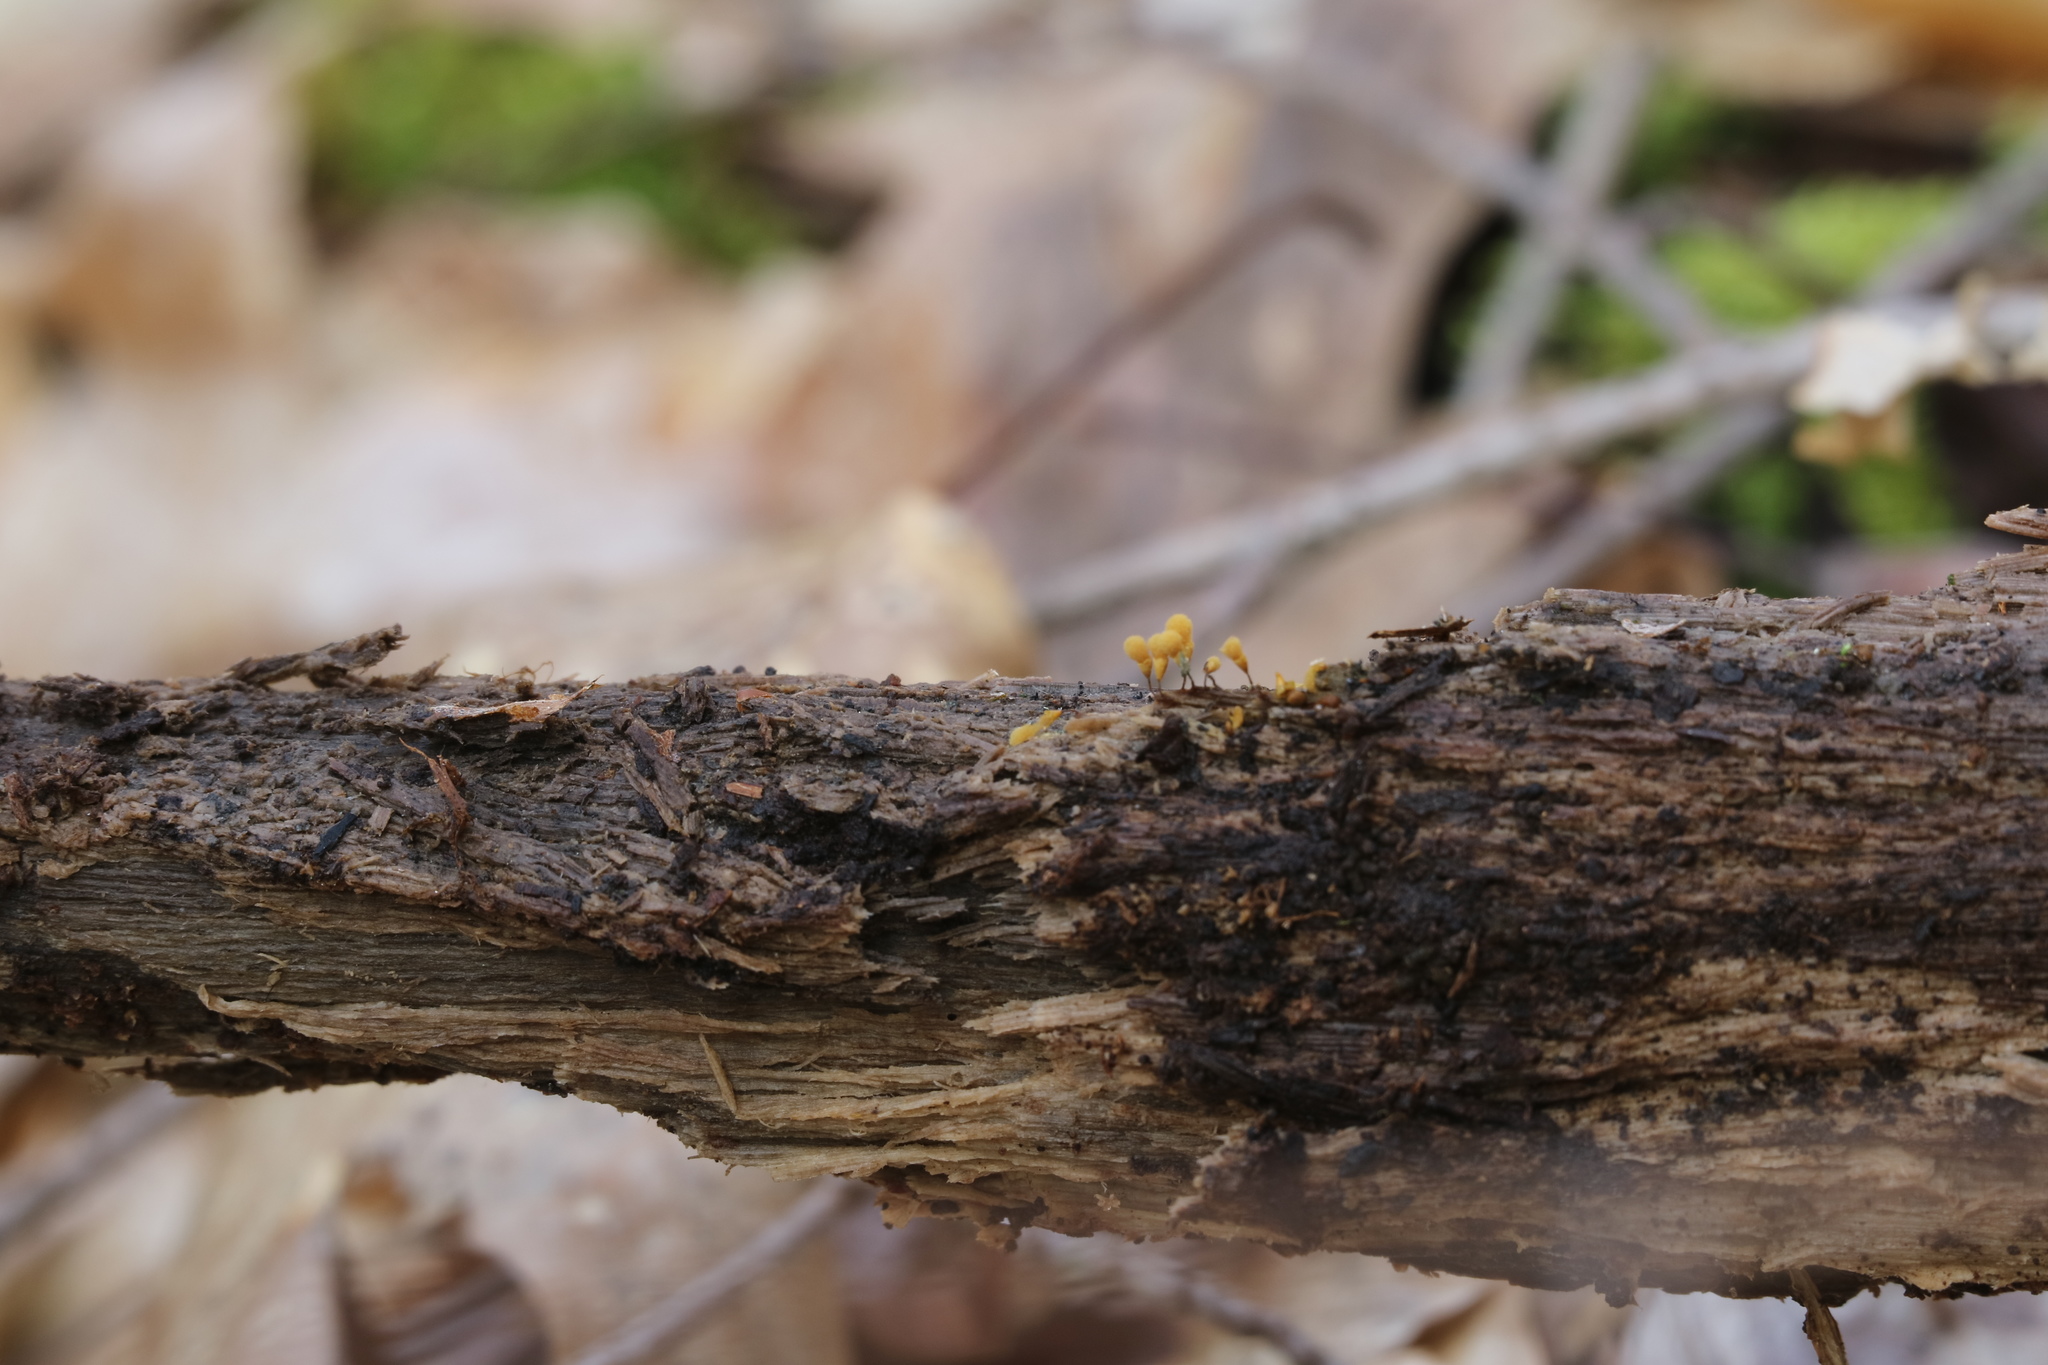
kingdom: Protozoa
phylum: Mycetozoa
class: Myxomycetes
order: Trichiales
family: Arcyriaceae
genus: Hemitrichia
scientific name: Hemitrichia calyculata
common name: Push pin slime mold
